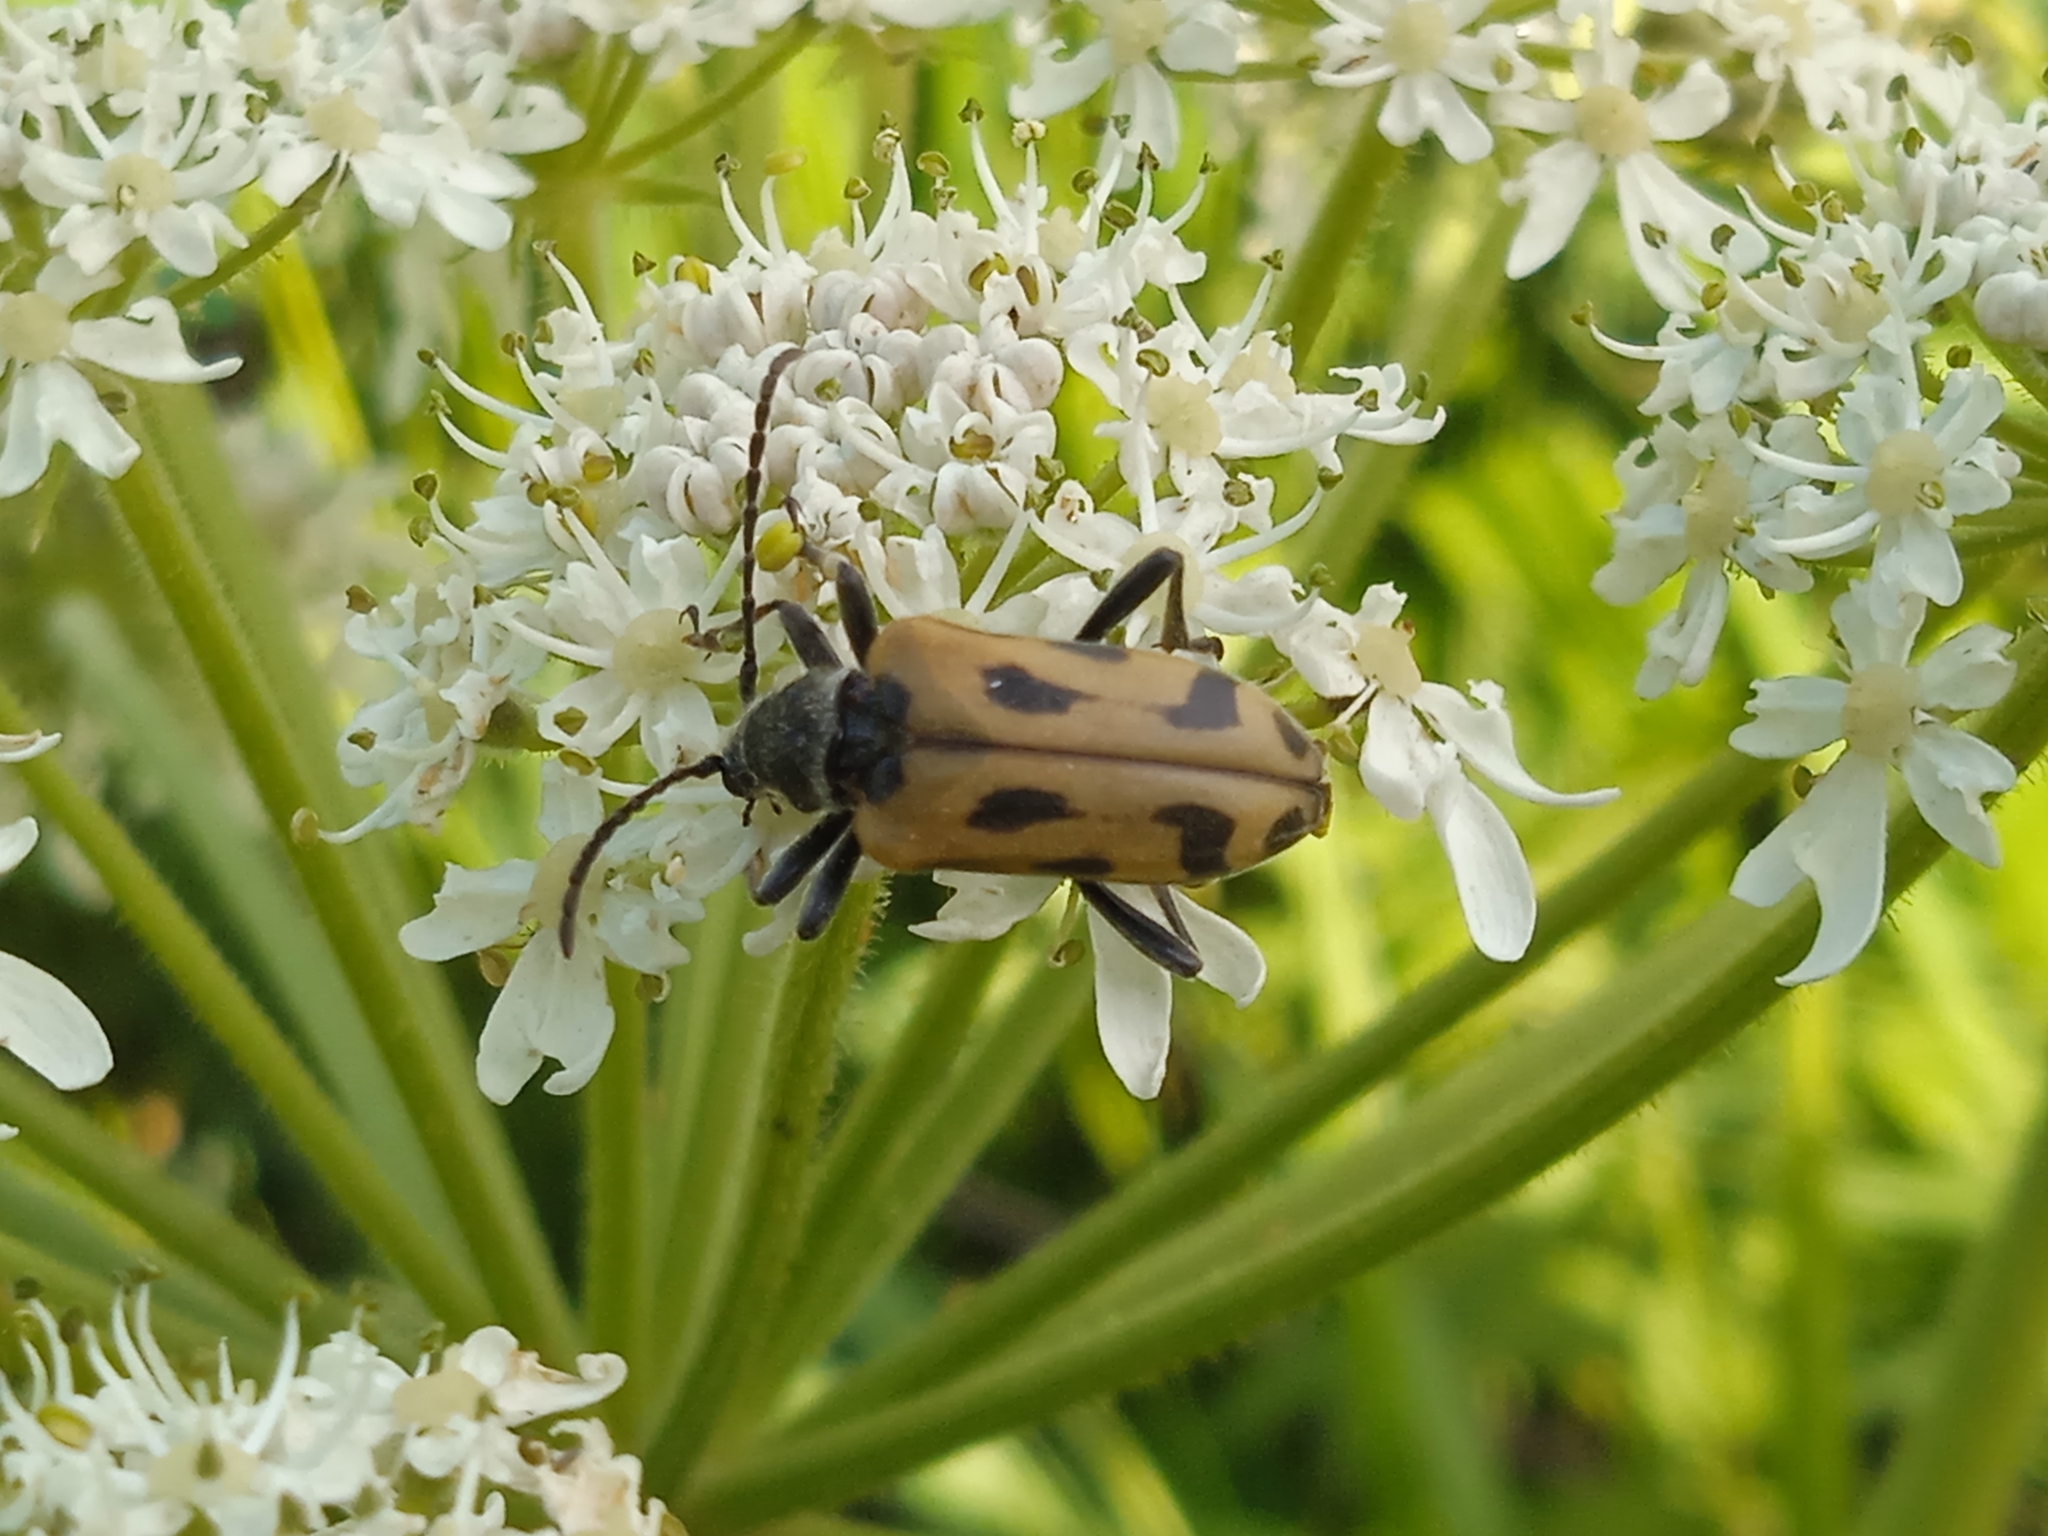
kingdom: Animalia
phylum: Arthropoda
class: Insecta
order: Coleoptera
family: Cerambycidae
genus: Brachyta
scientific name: Brachyta interrogationis
